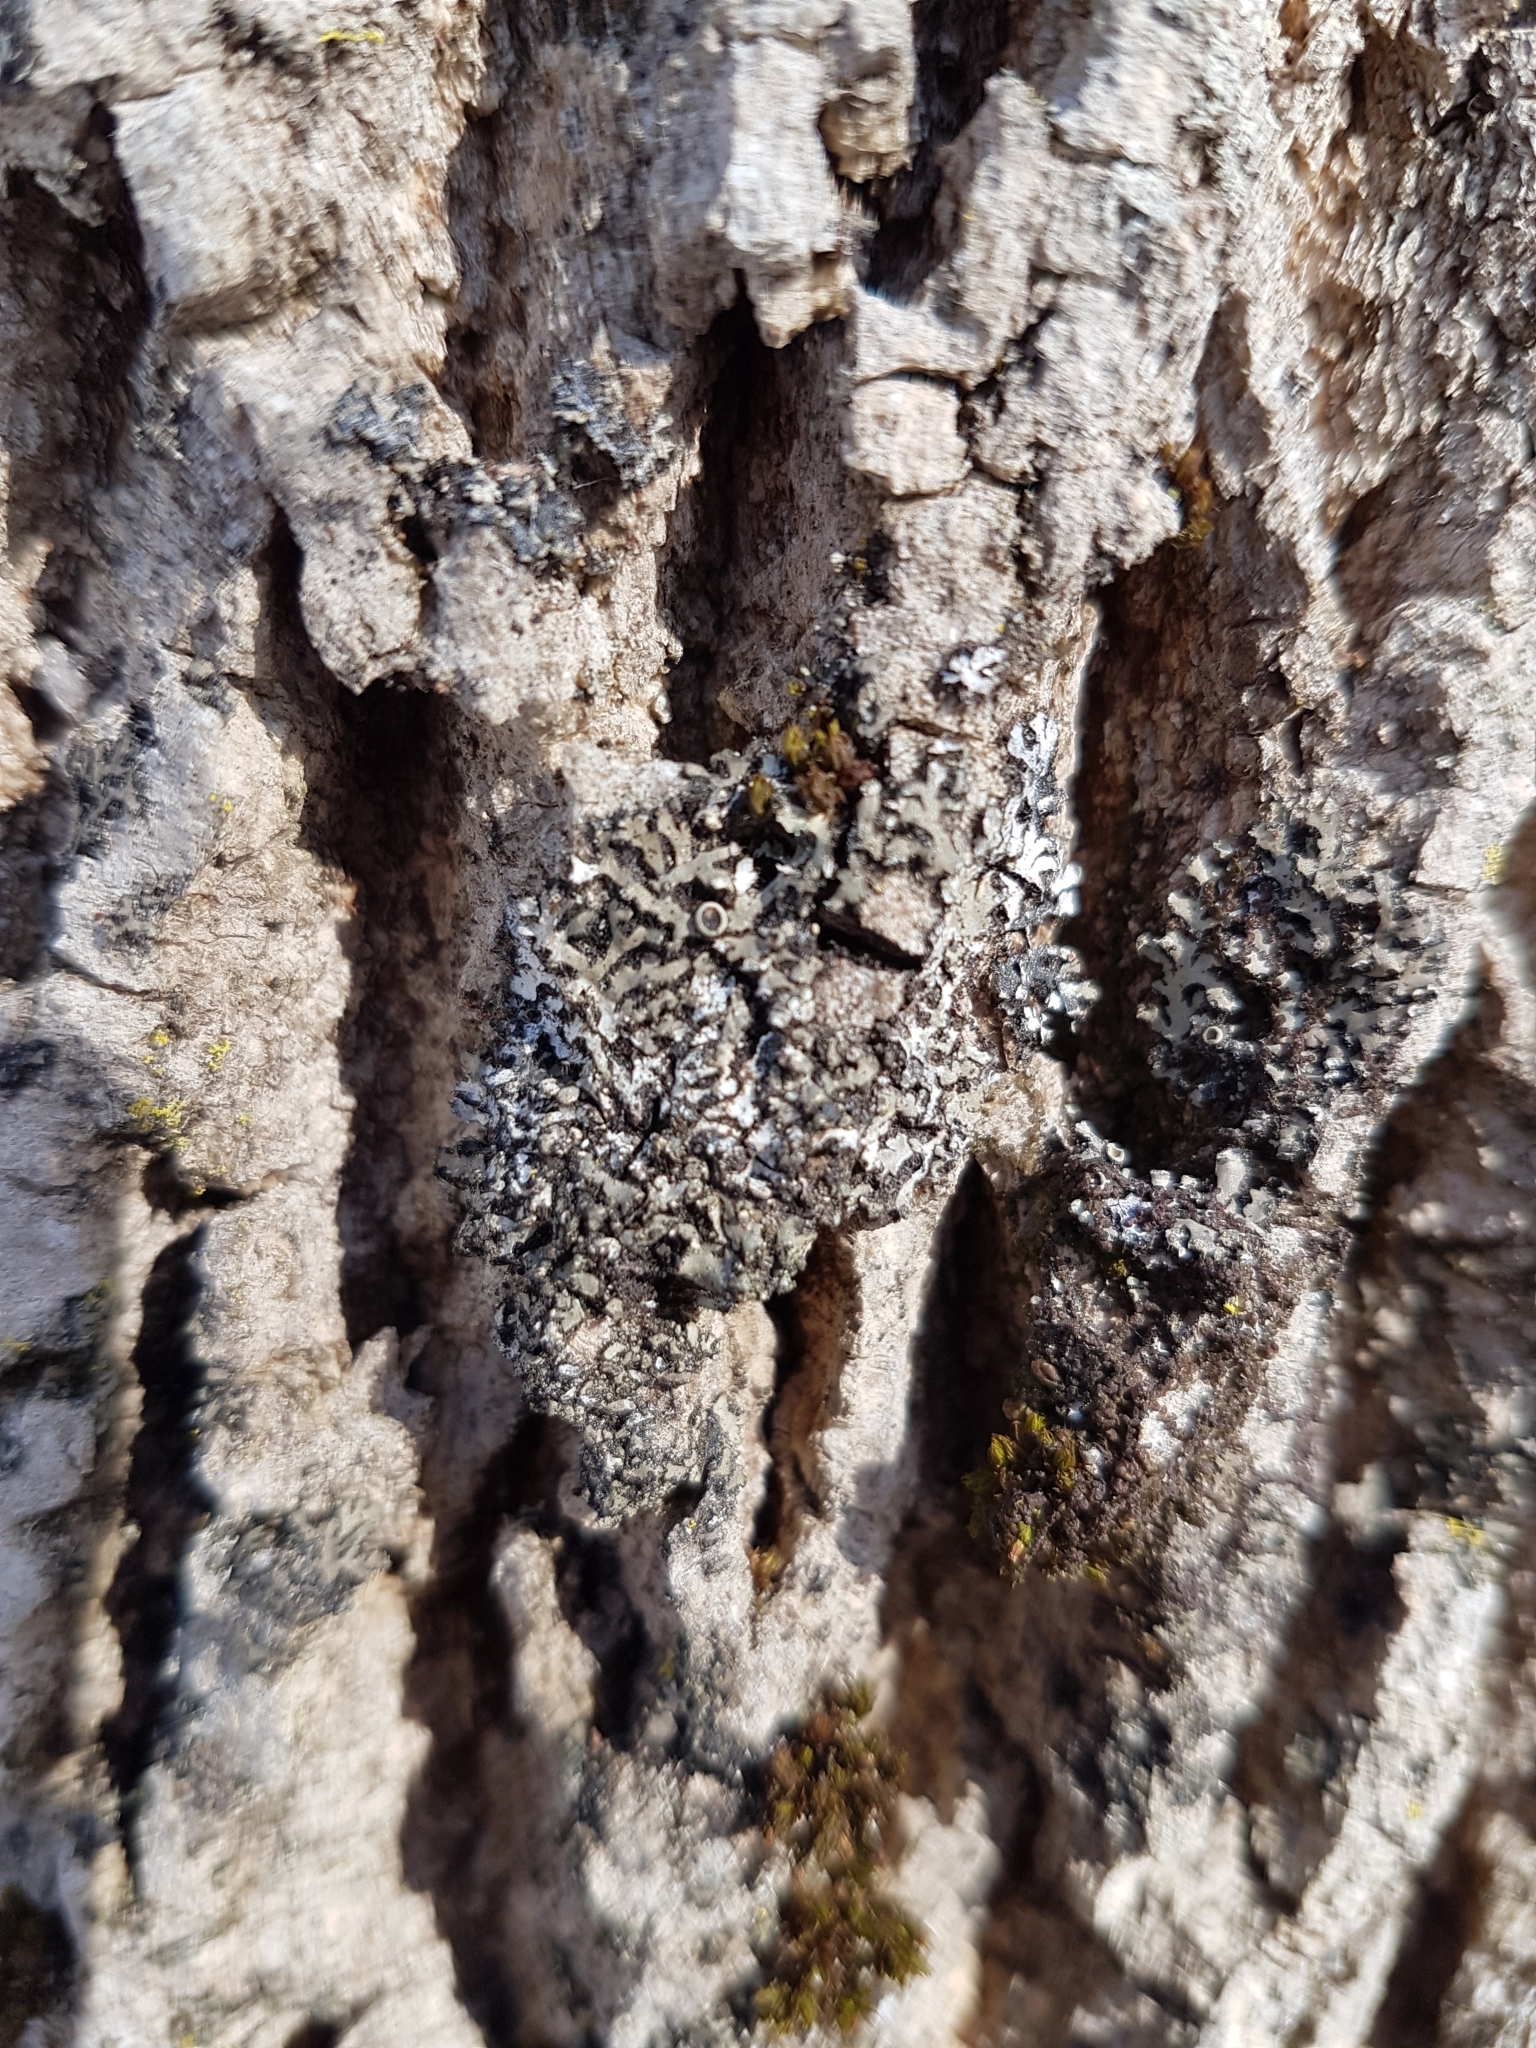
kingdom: Fungi
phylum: Ascomycota
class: Lecanoromycetes
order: Caliciales
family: Physciaceae
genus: Phaeophyscia
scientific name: Phaeophyscia rubropulchra
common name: Orange-cored shadow lichen
